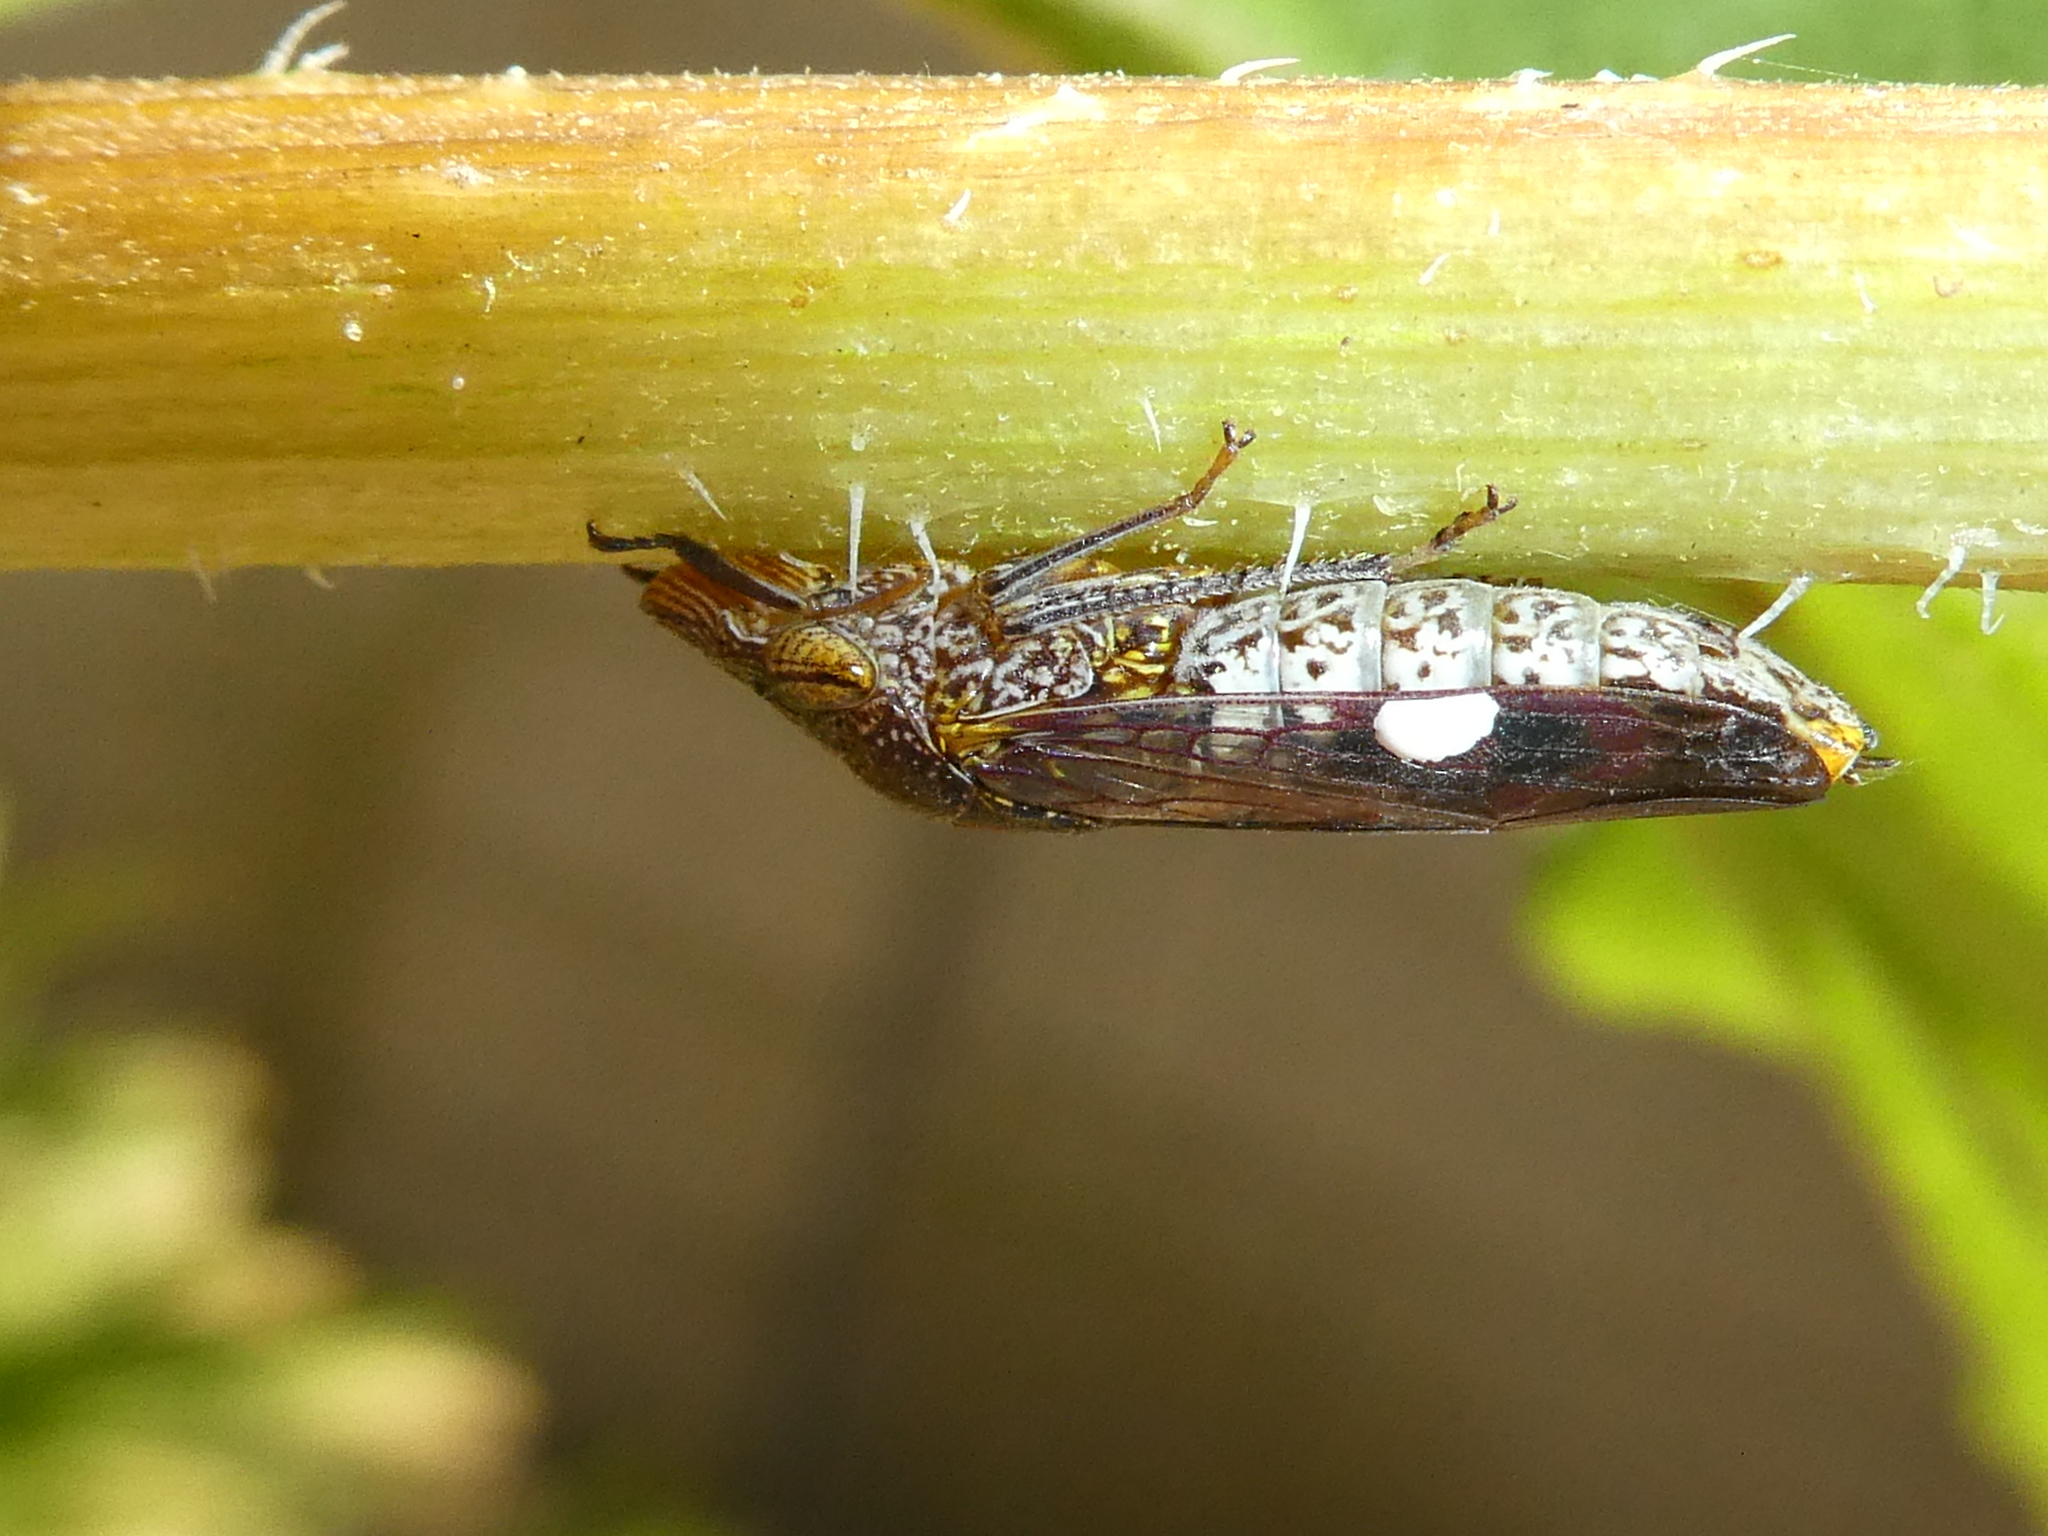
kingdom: Animalia
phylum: Arthropoda
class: Insecta
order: Hemiptera
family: Cicadellidae
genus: Homalodisca
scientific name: Homalodisca vitripennis
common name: Glassy-winged sharpshooter
